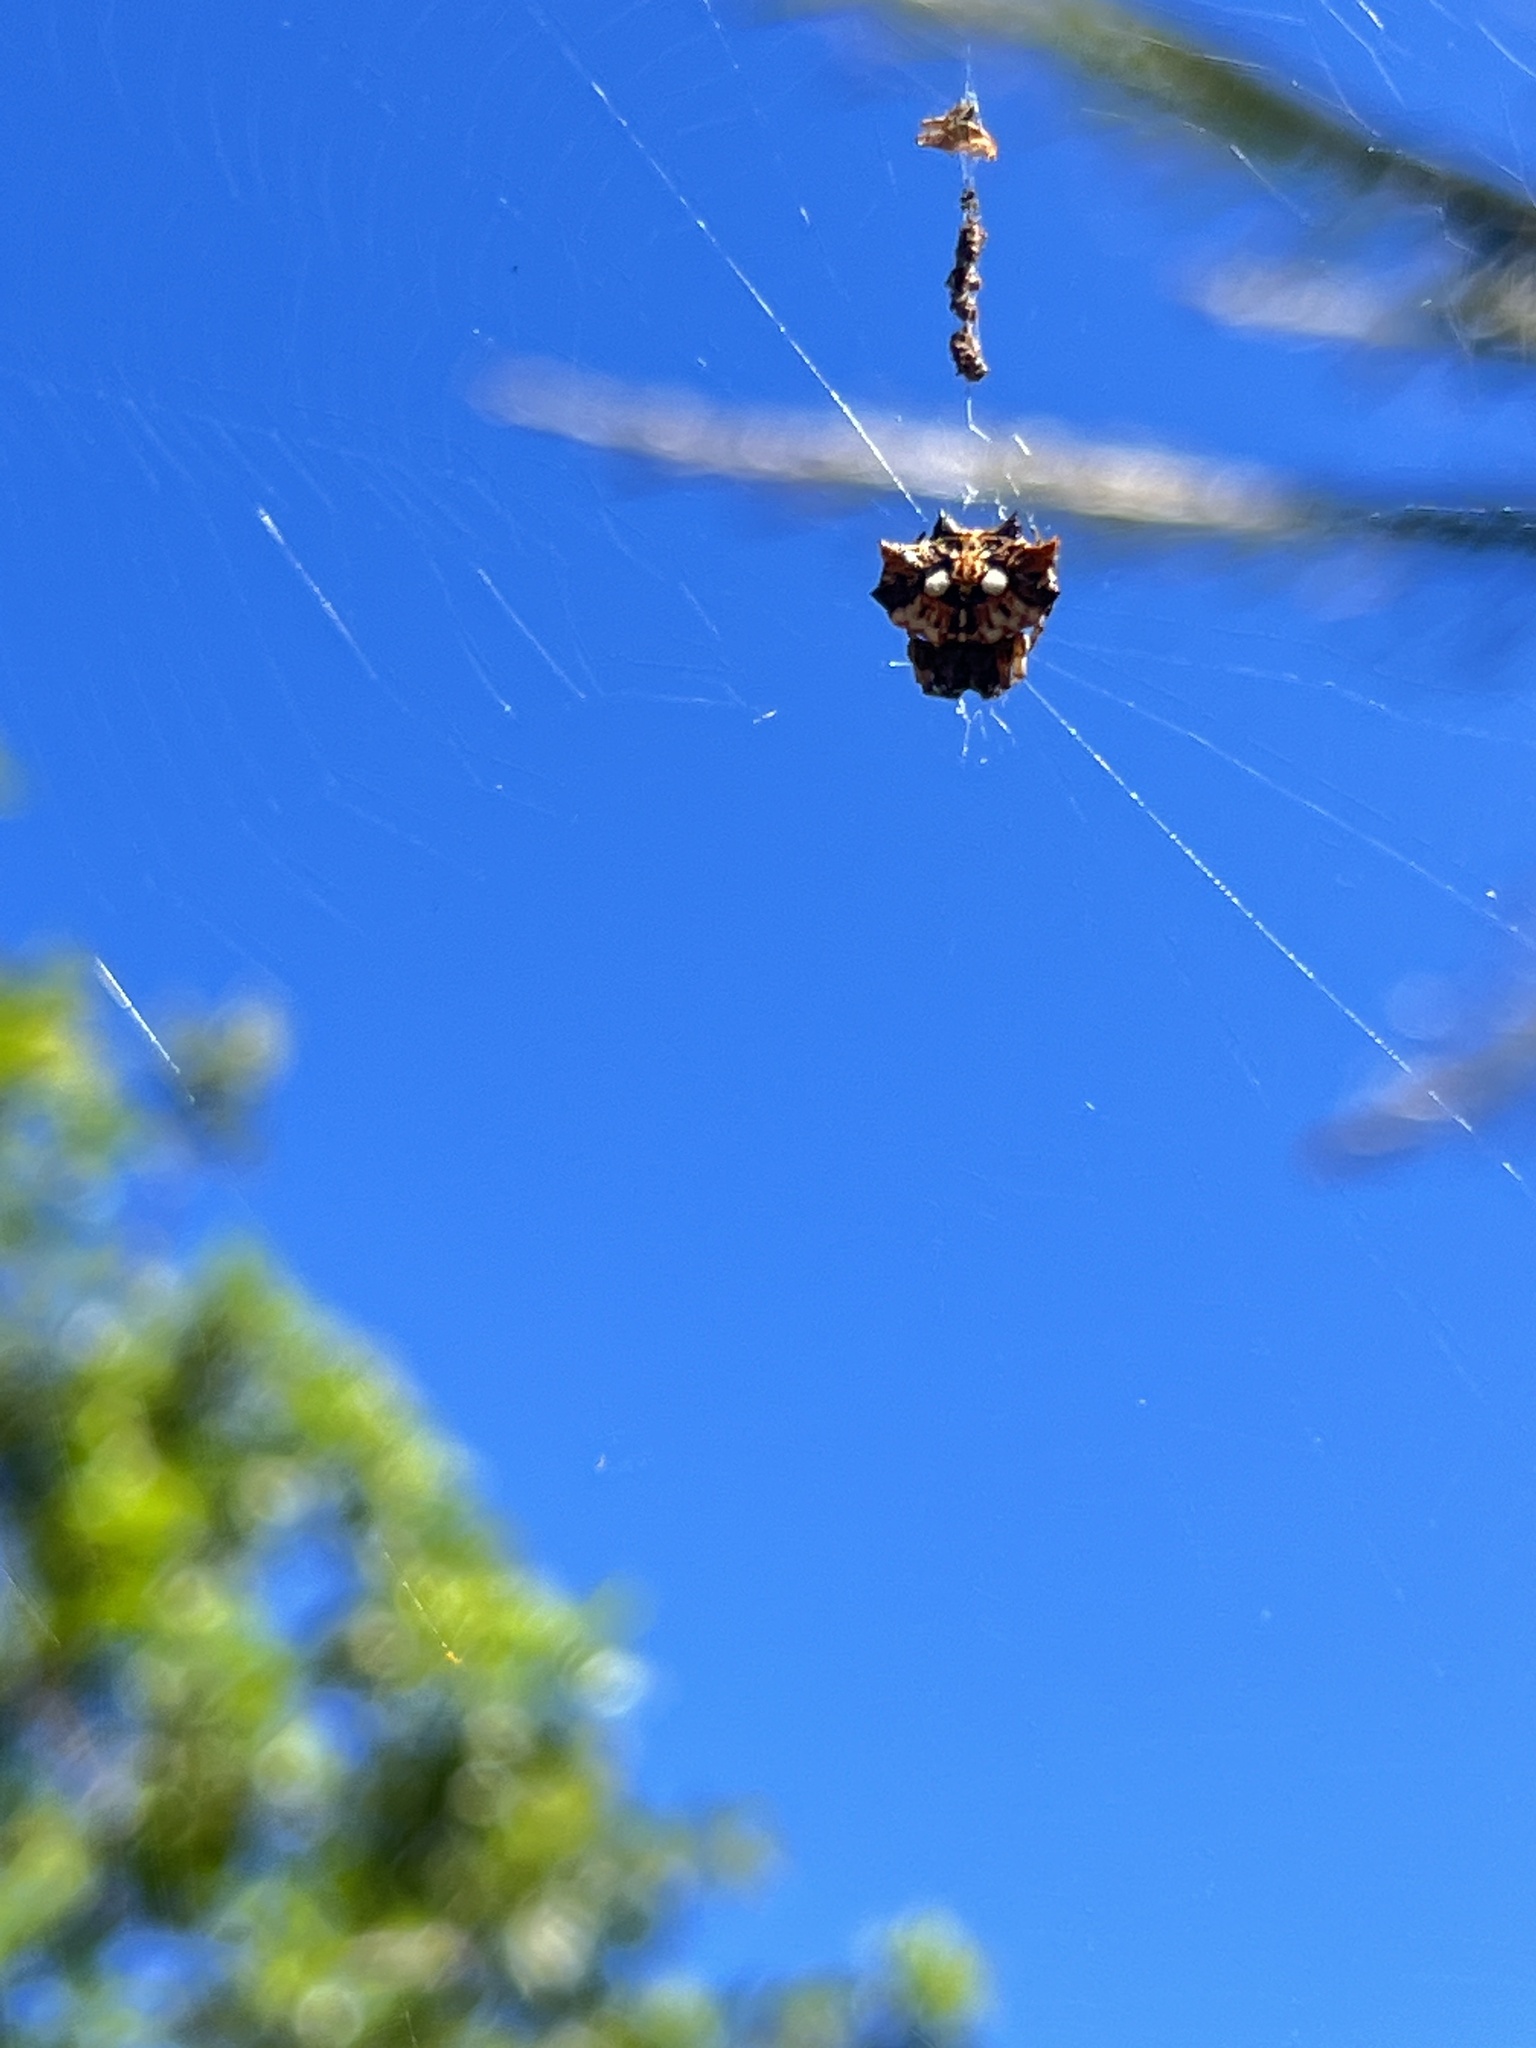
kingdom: Animalia
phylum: Arthropoda
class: Arachnida
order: Araneae
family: Araneidae
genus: Thelacantha
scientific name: Thelacantha brevispina
